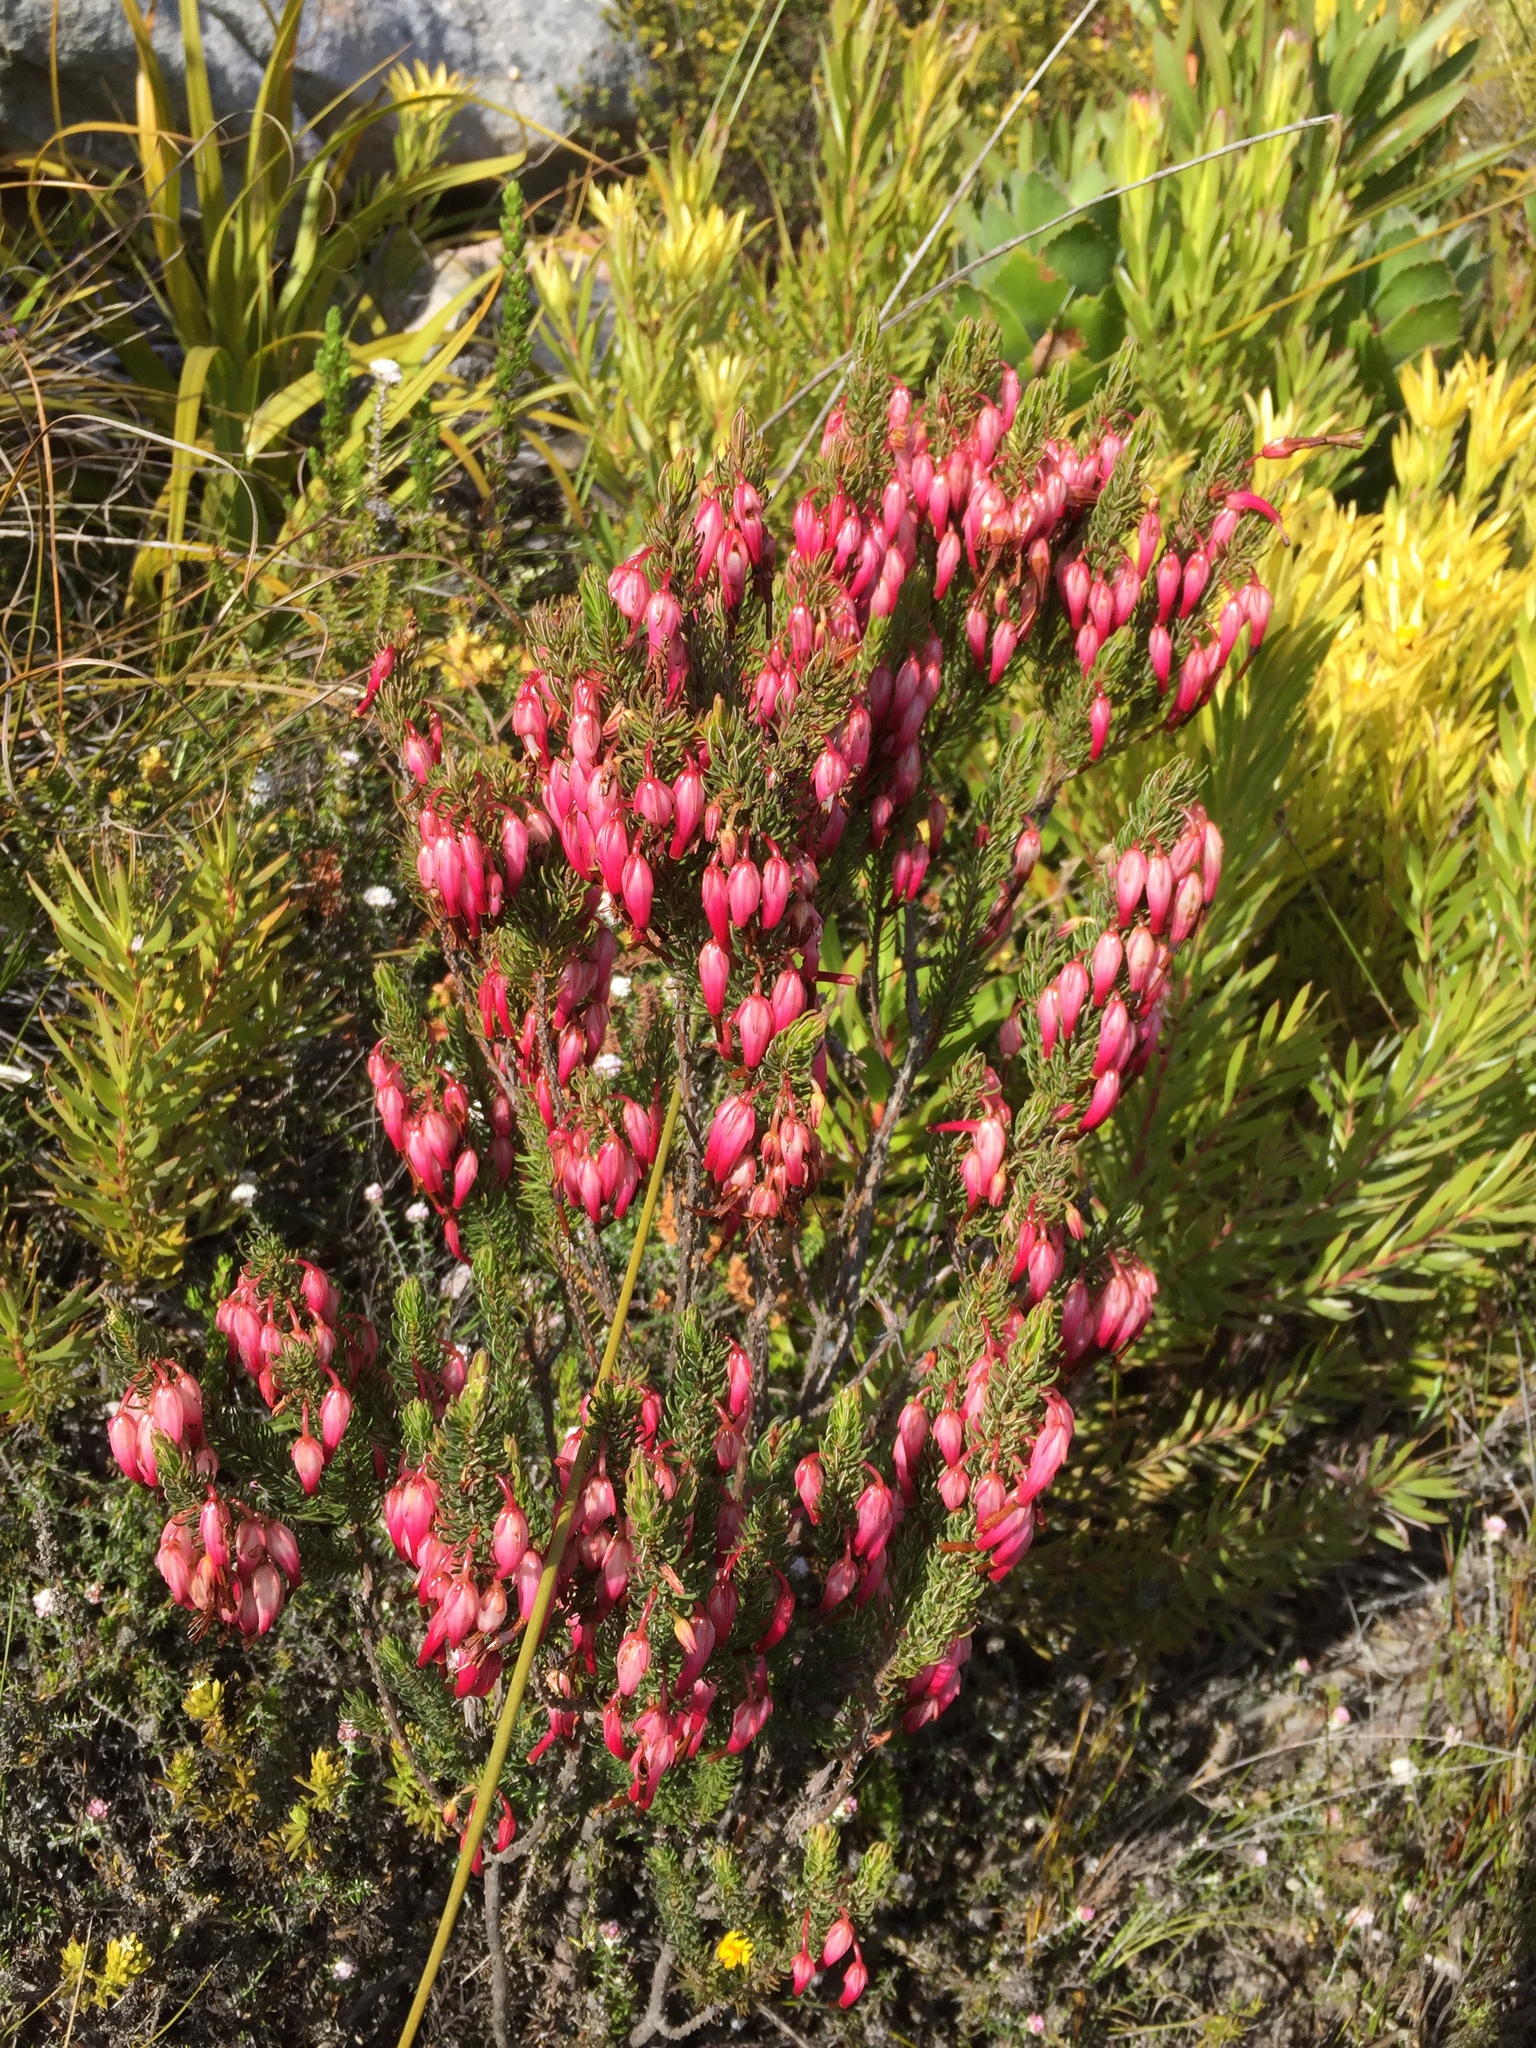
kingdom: Plantae
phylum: Tracheophyta
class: Magnoliopsida
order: Ericales
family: Ericaceae
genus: Erica
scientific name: Erica plukenetii
